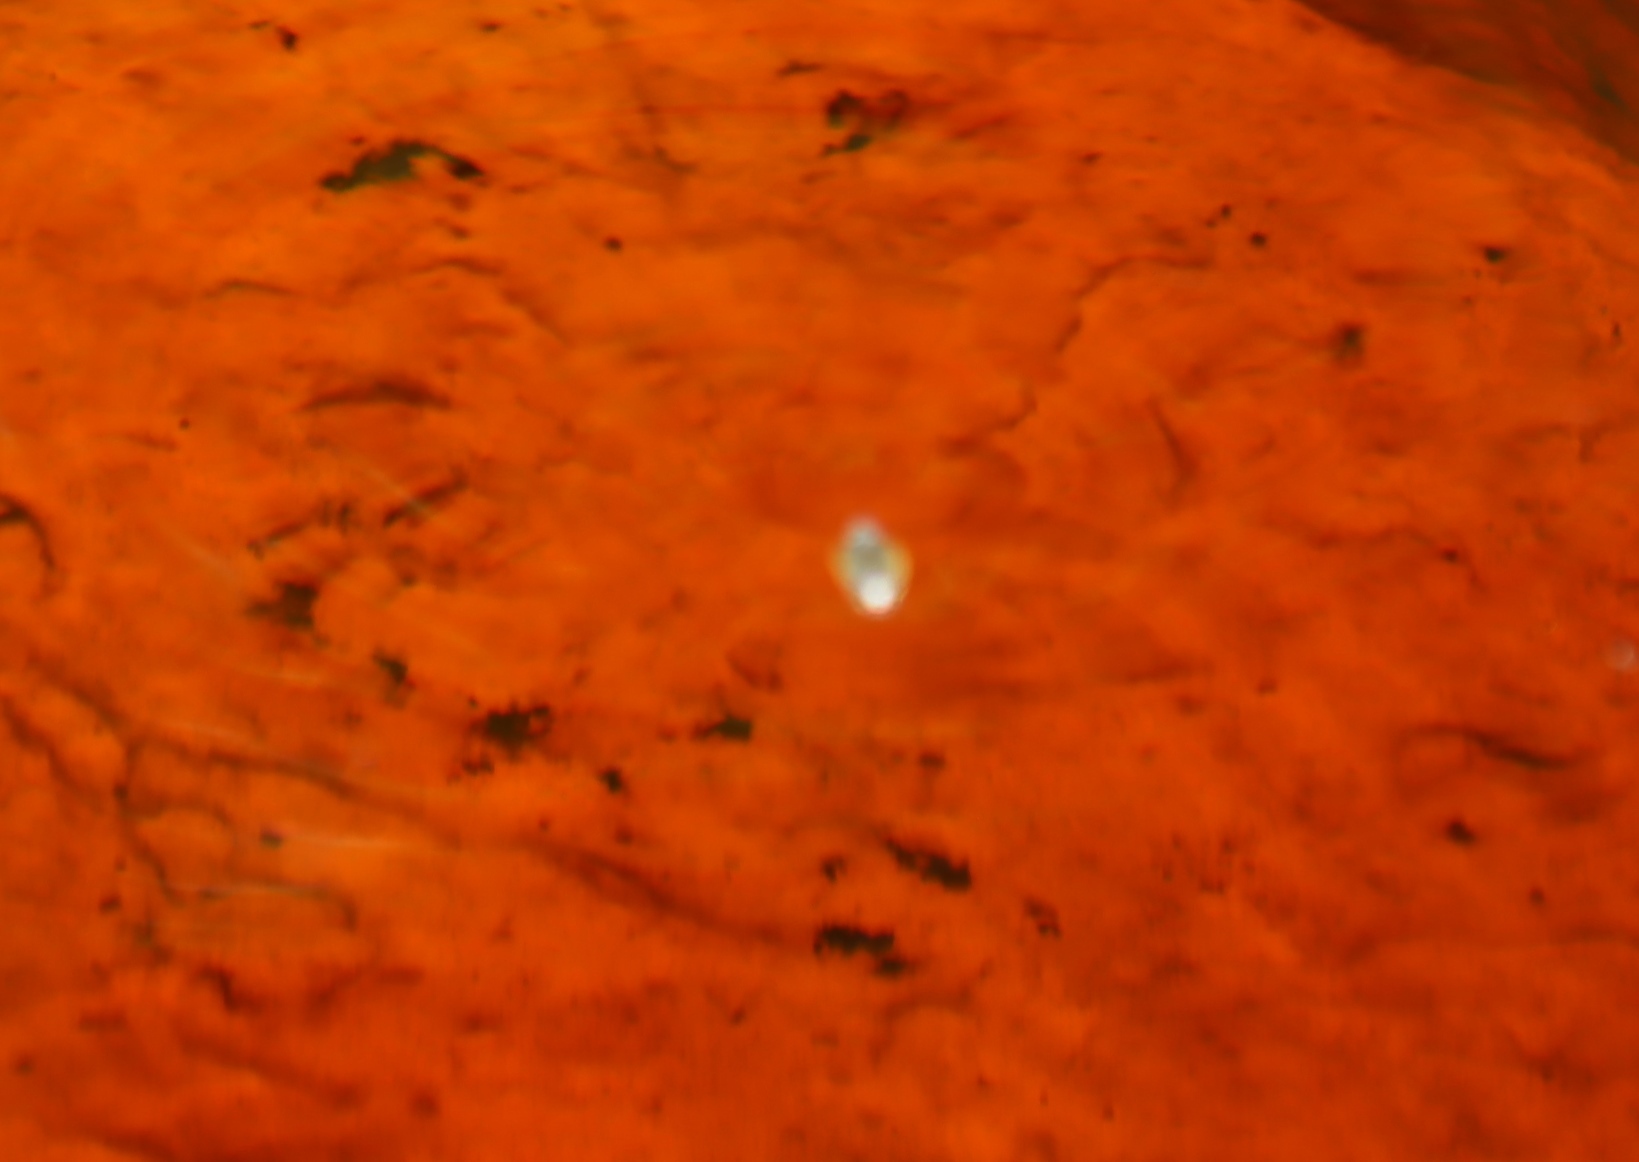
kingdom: Animalia
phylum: Arthropoda
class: Insecta
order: Coleoptera
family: Gyrinidae
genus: Aulonogyrus
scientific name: Aulonogyrus
